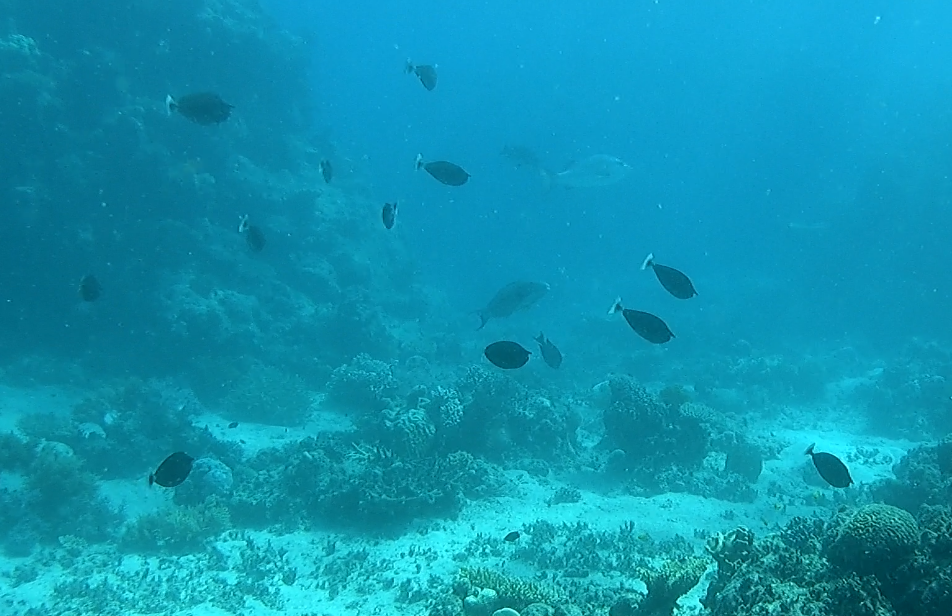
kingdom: Animalia
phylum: Chordata
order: Perciformes
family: Acanthuridae
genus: Naso
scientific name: Naso brevirostris
